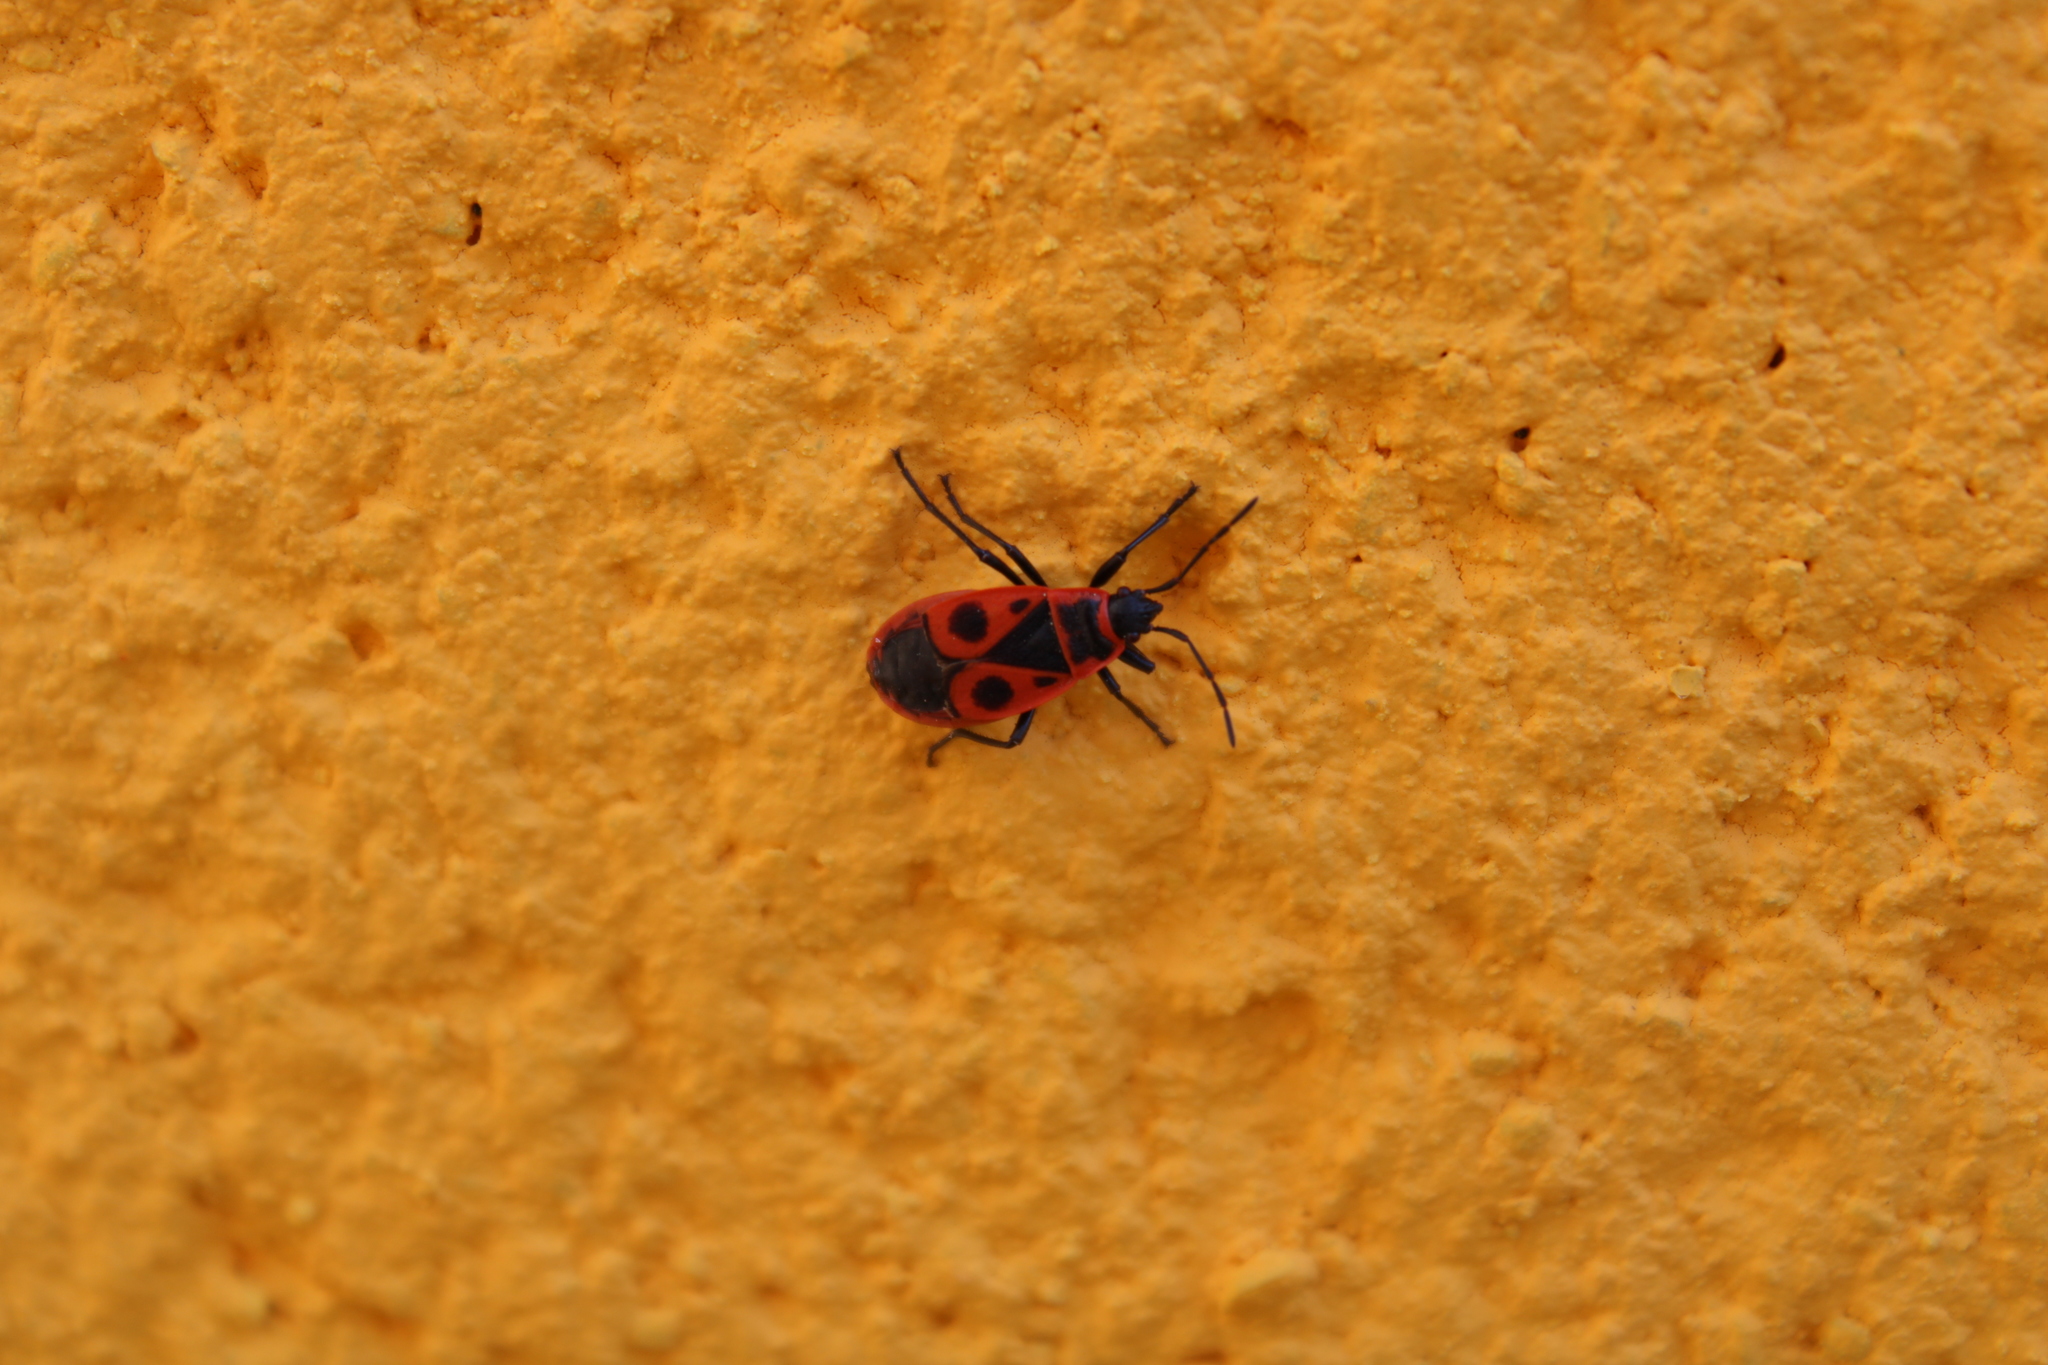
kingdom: Animalia
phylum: Arthropoda
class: Insecta
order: Hemiptera
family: Pyrrhocoridae
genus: Pyrrhocoris
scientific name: Pyrrhocoris apterus
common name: Firebug
